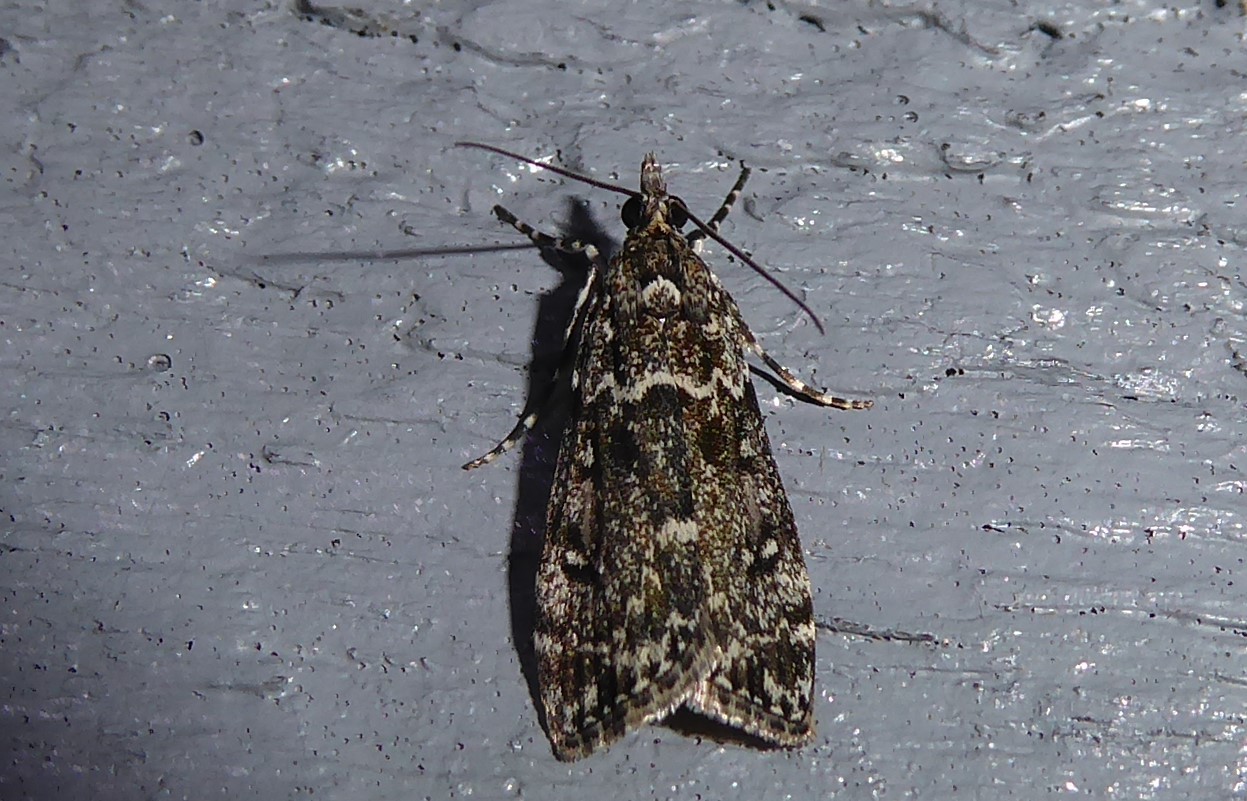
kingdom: Animalia
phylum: Arthropoda
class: Insecta
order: Lepidoptera
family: Crambidae
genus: Eudonia
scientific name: Eudonia philerga
